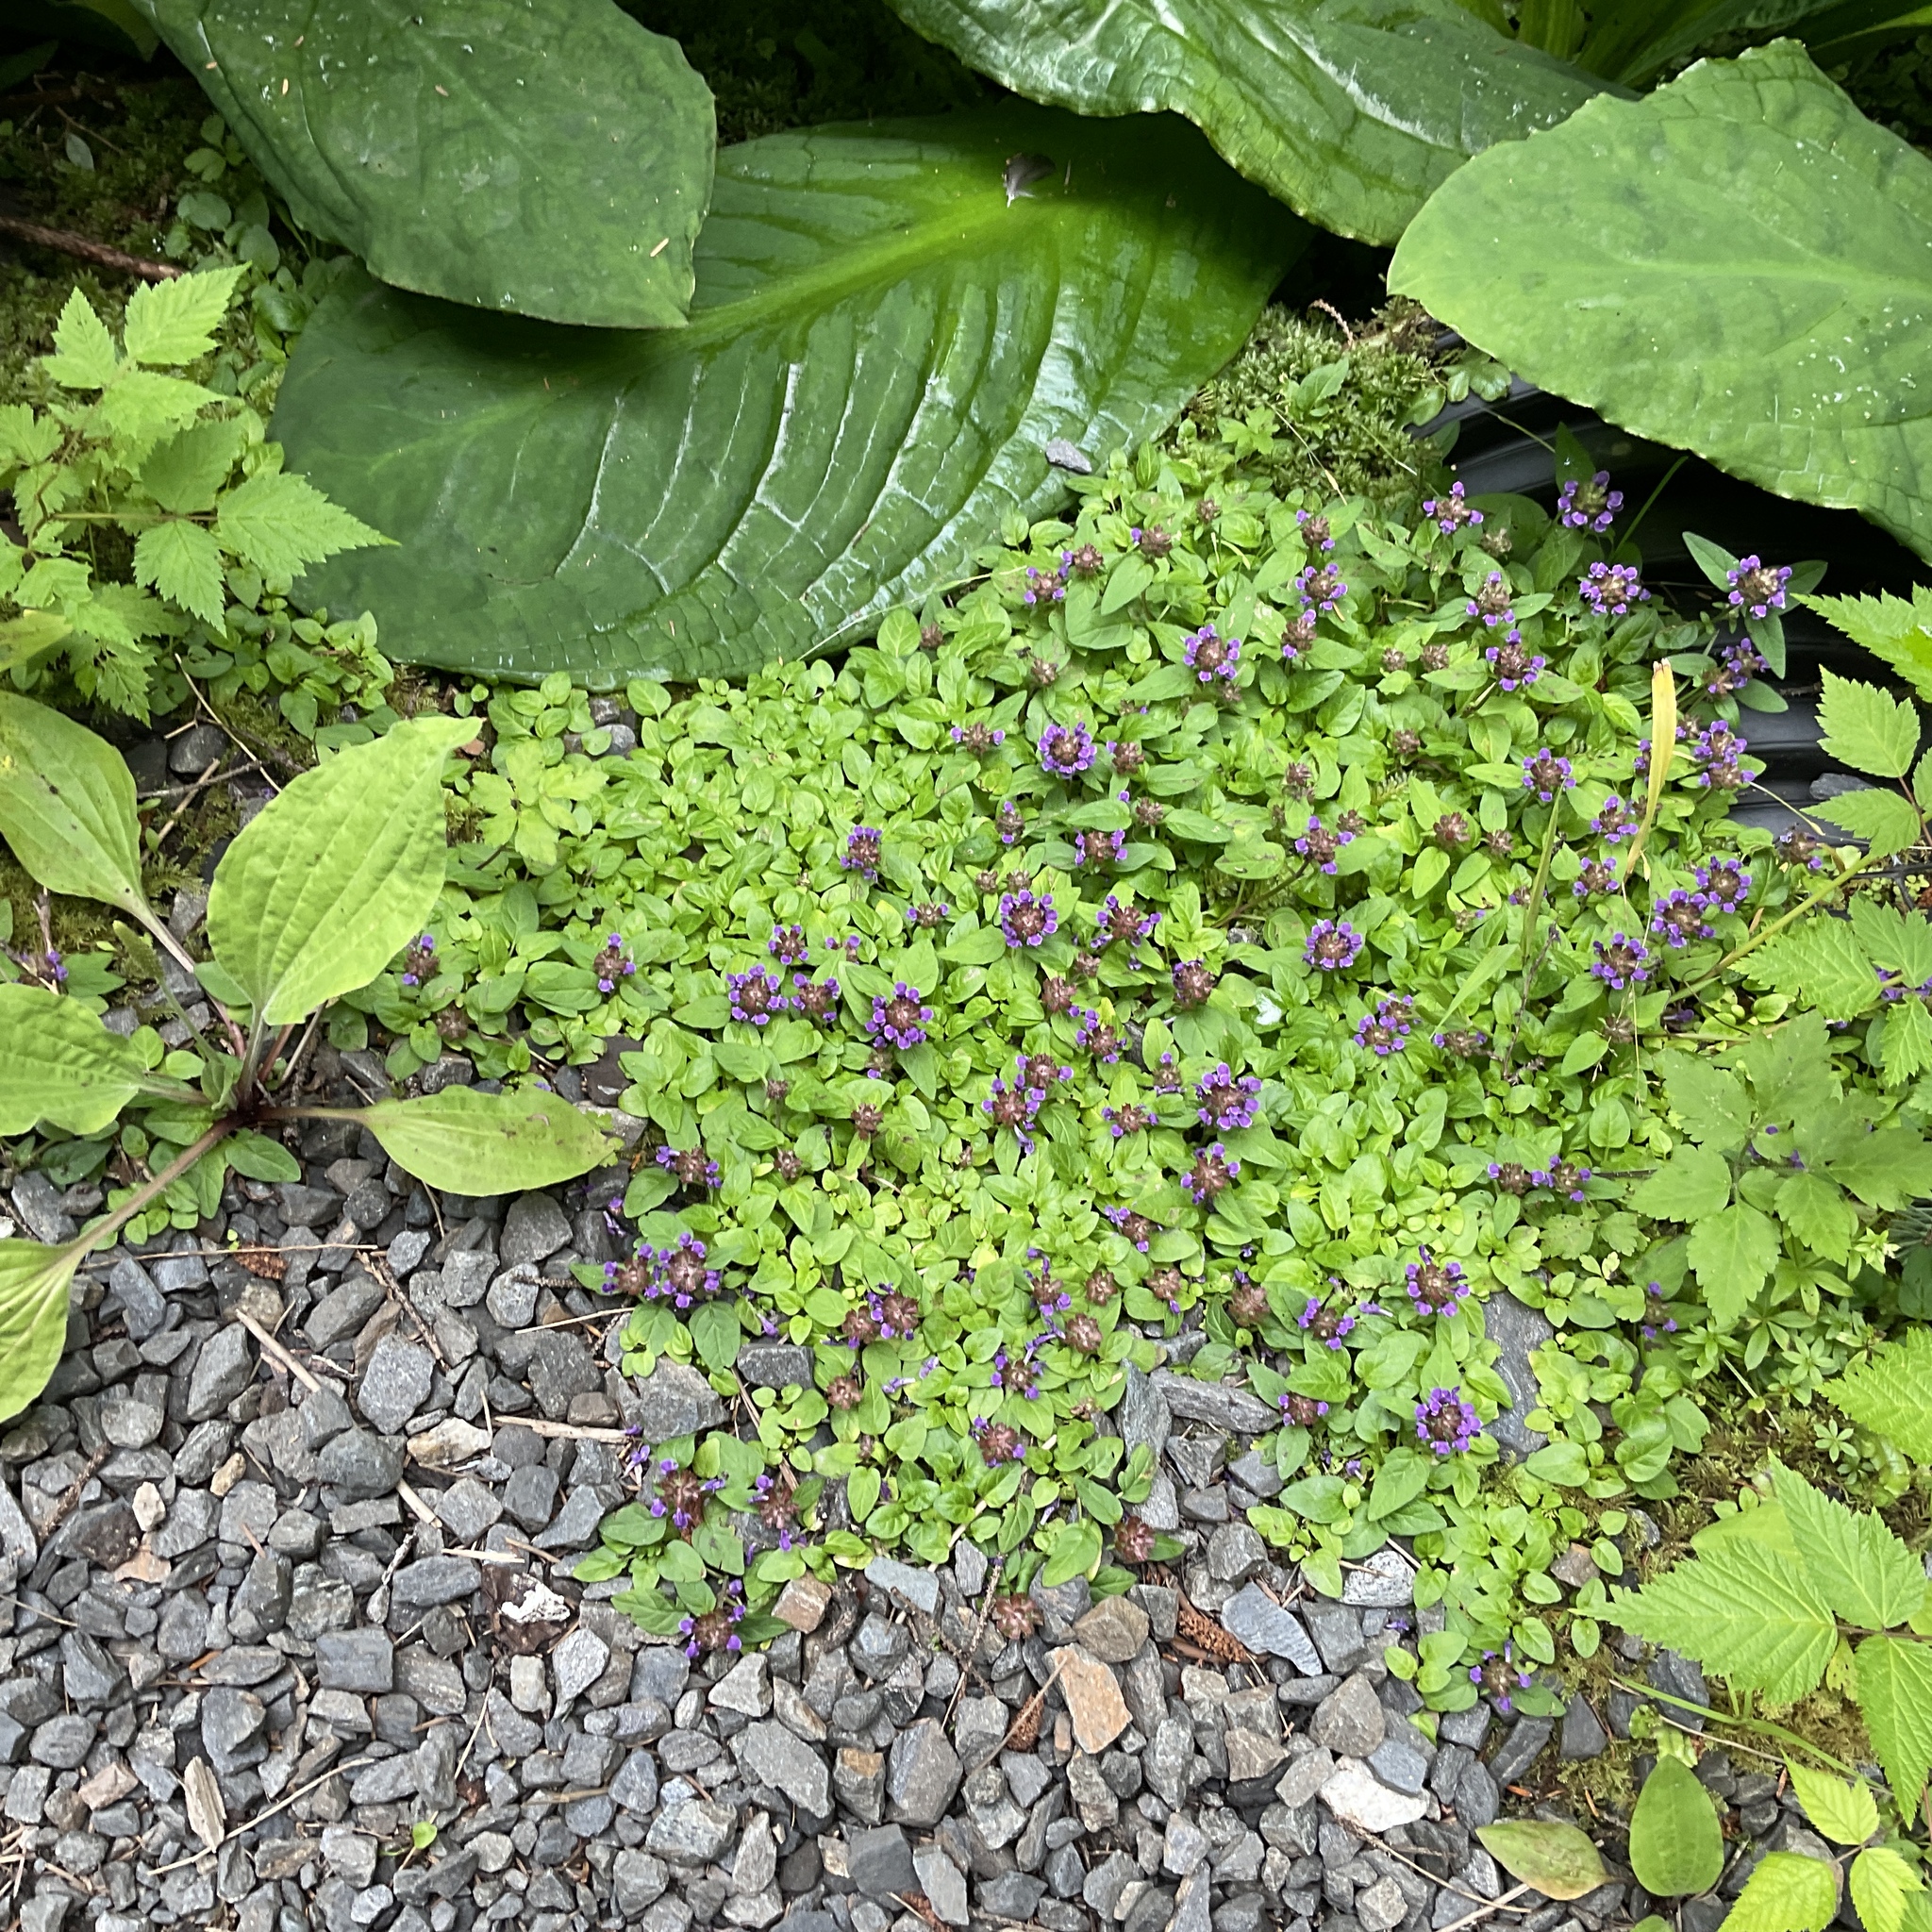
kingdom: Plantae
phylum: Tracheophyta
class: Magnoliopsida
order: Lamiales
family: Lamiaceae
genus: Prunella
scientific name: Prunella vulgaris
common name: Heal-all
